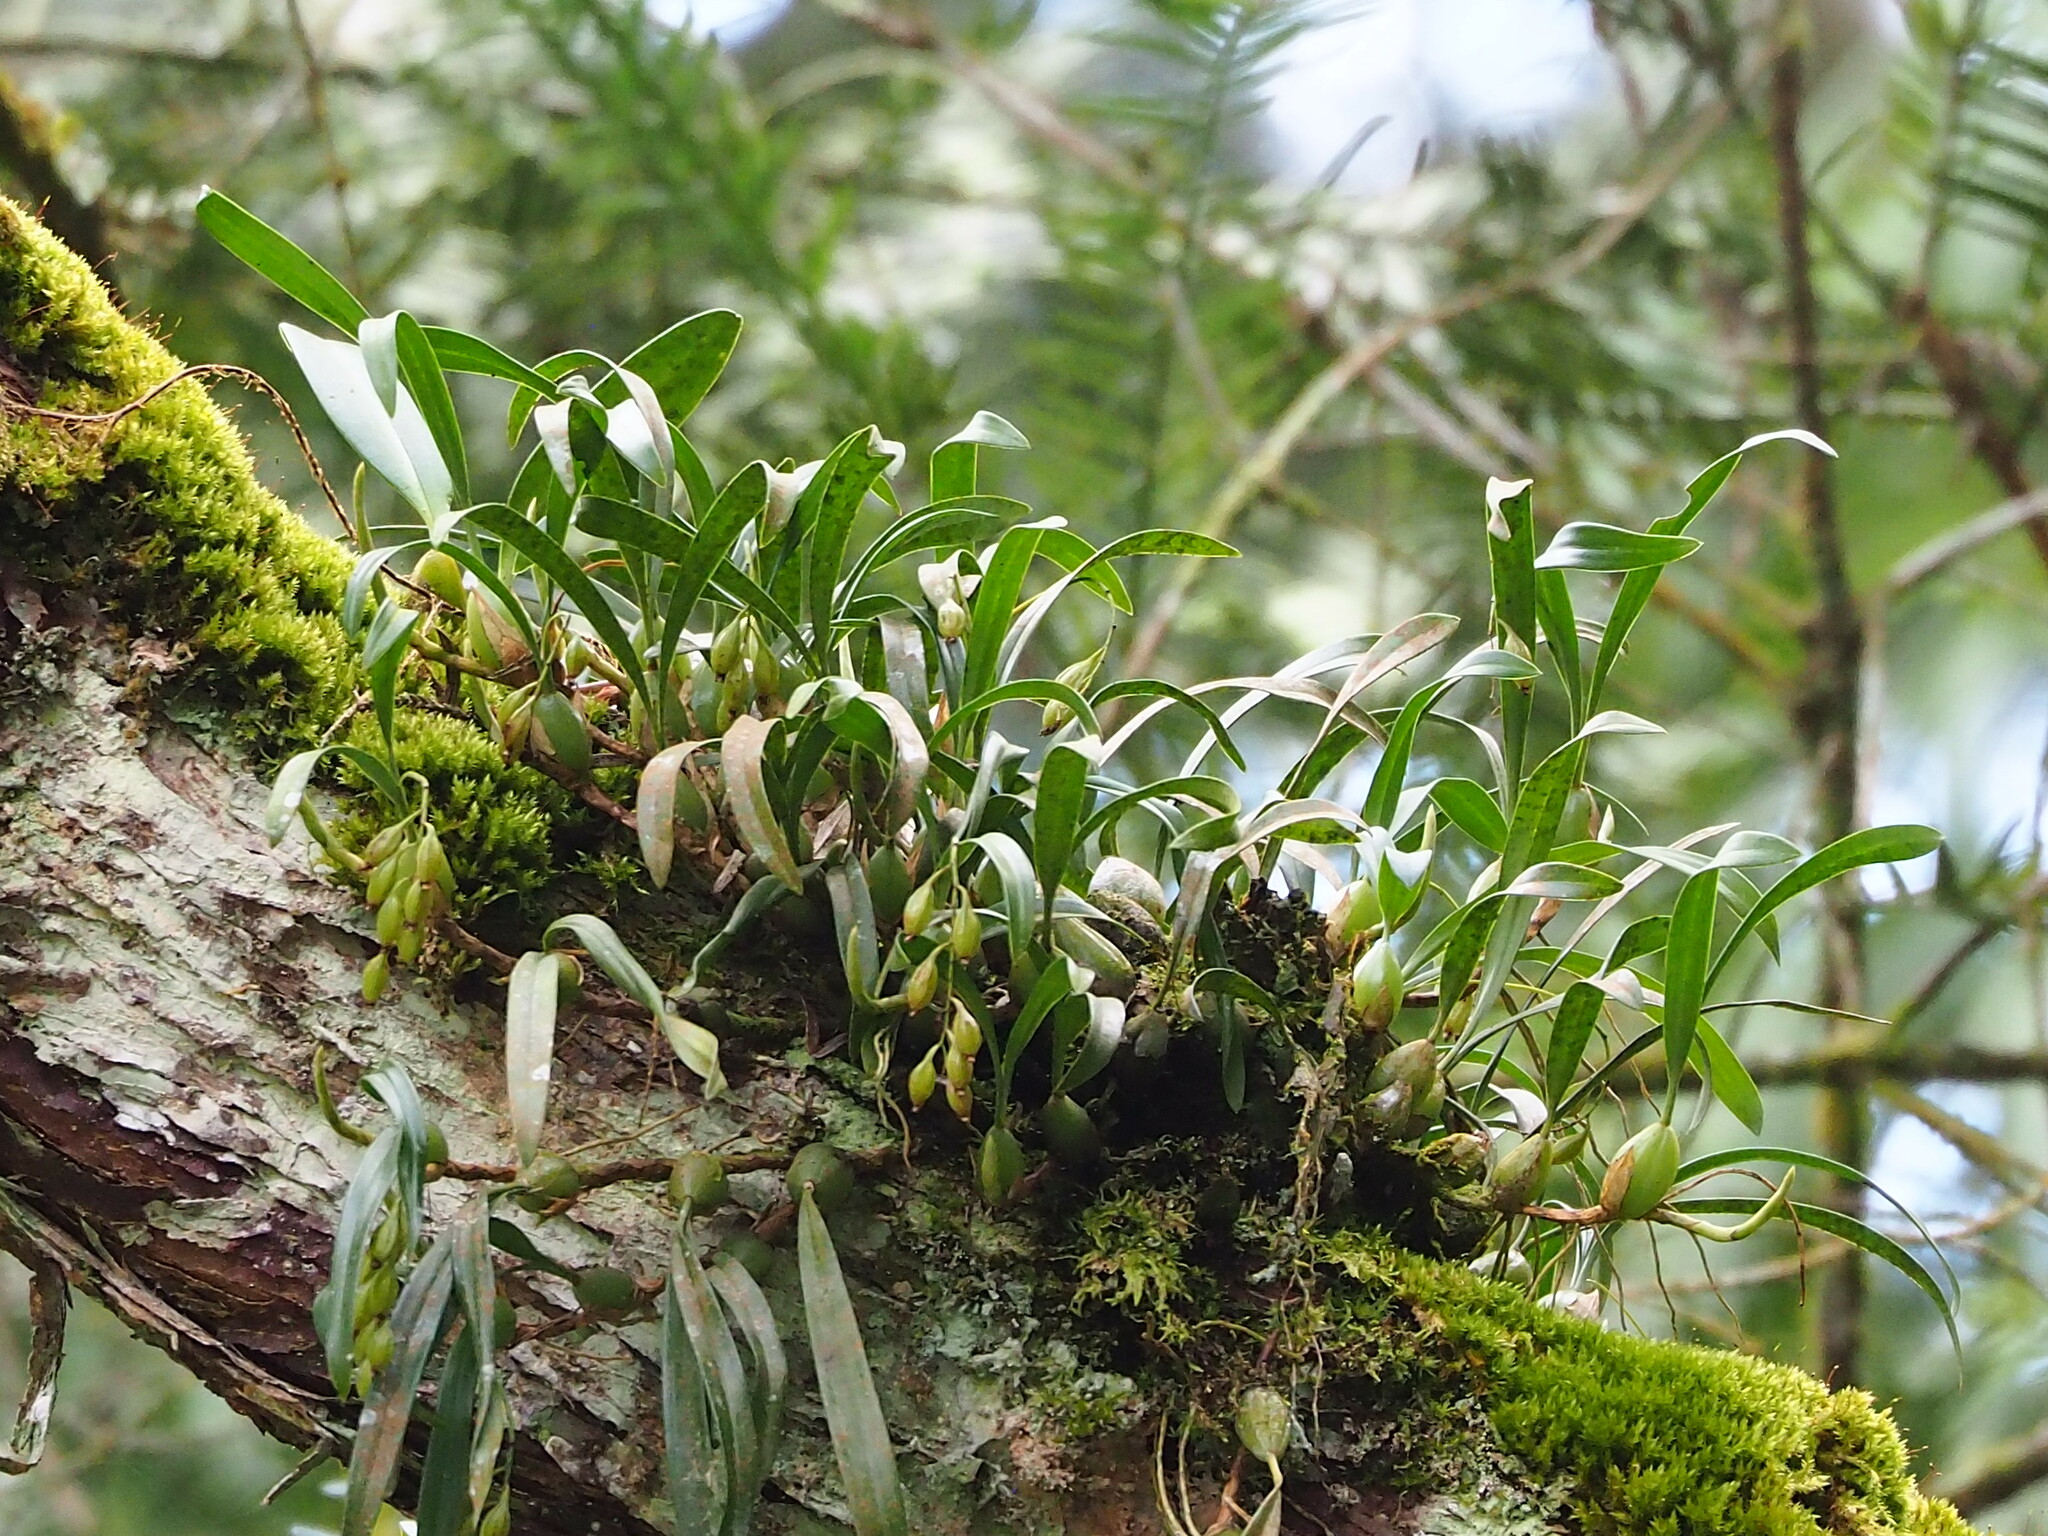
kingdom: Plantae
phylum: Tracheophyta
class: Liliopsida
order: Asparagales
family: Orchidaceae
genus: Coelogyne
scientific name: Coelogyne cantonensis
